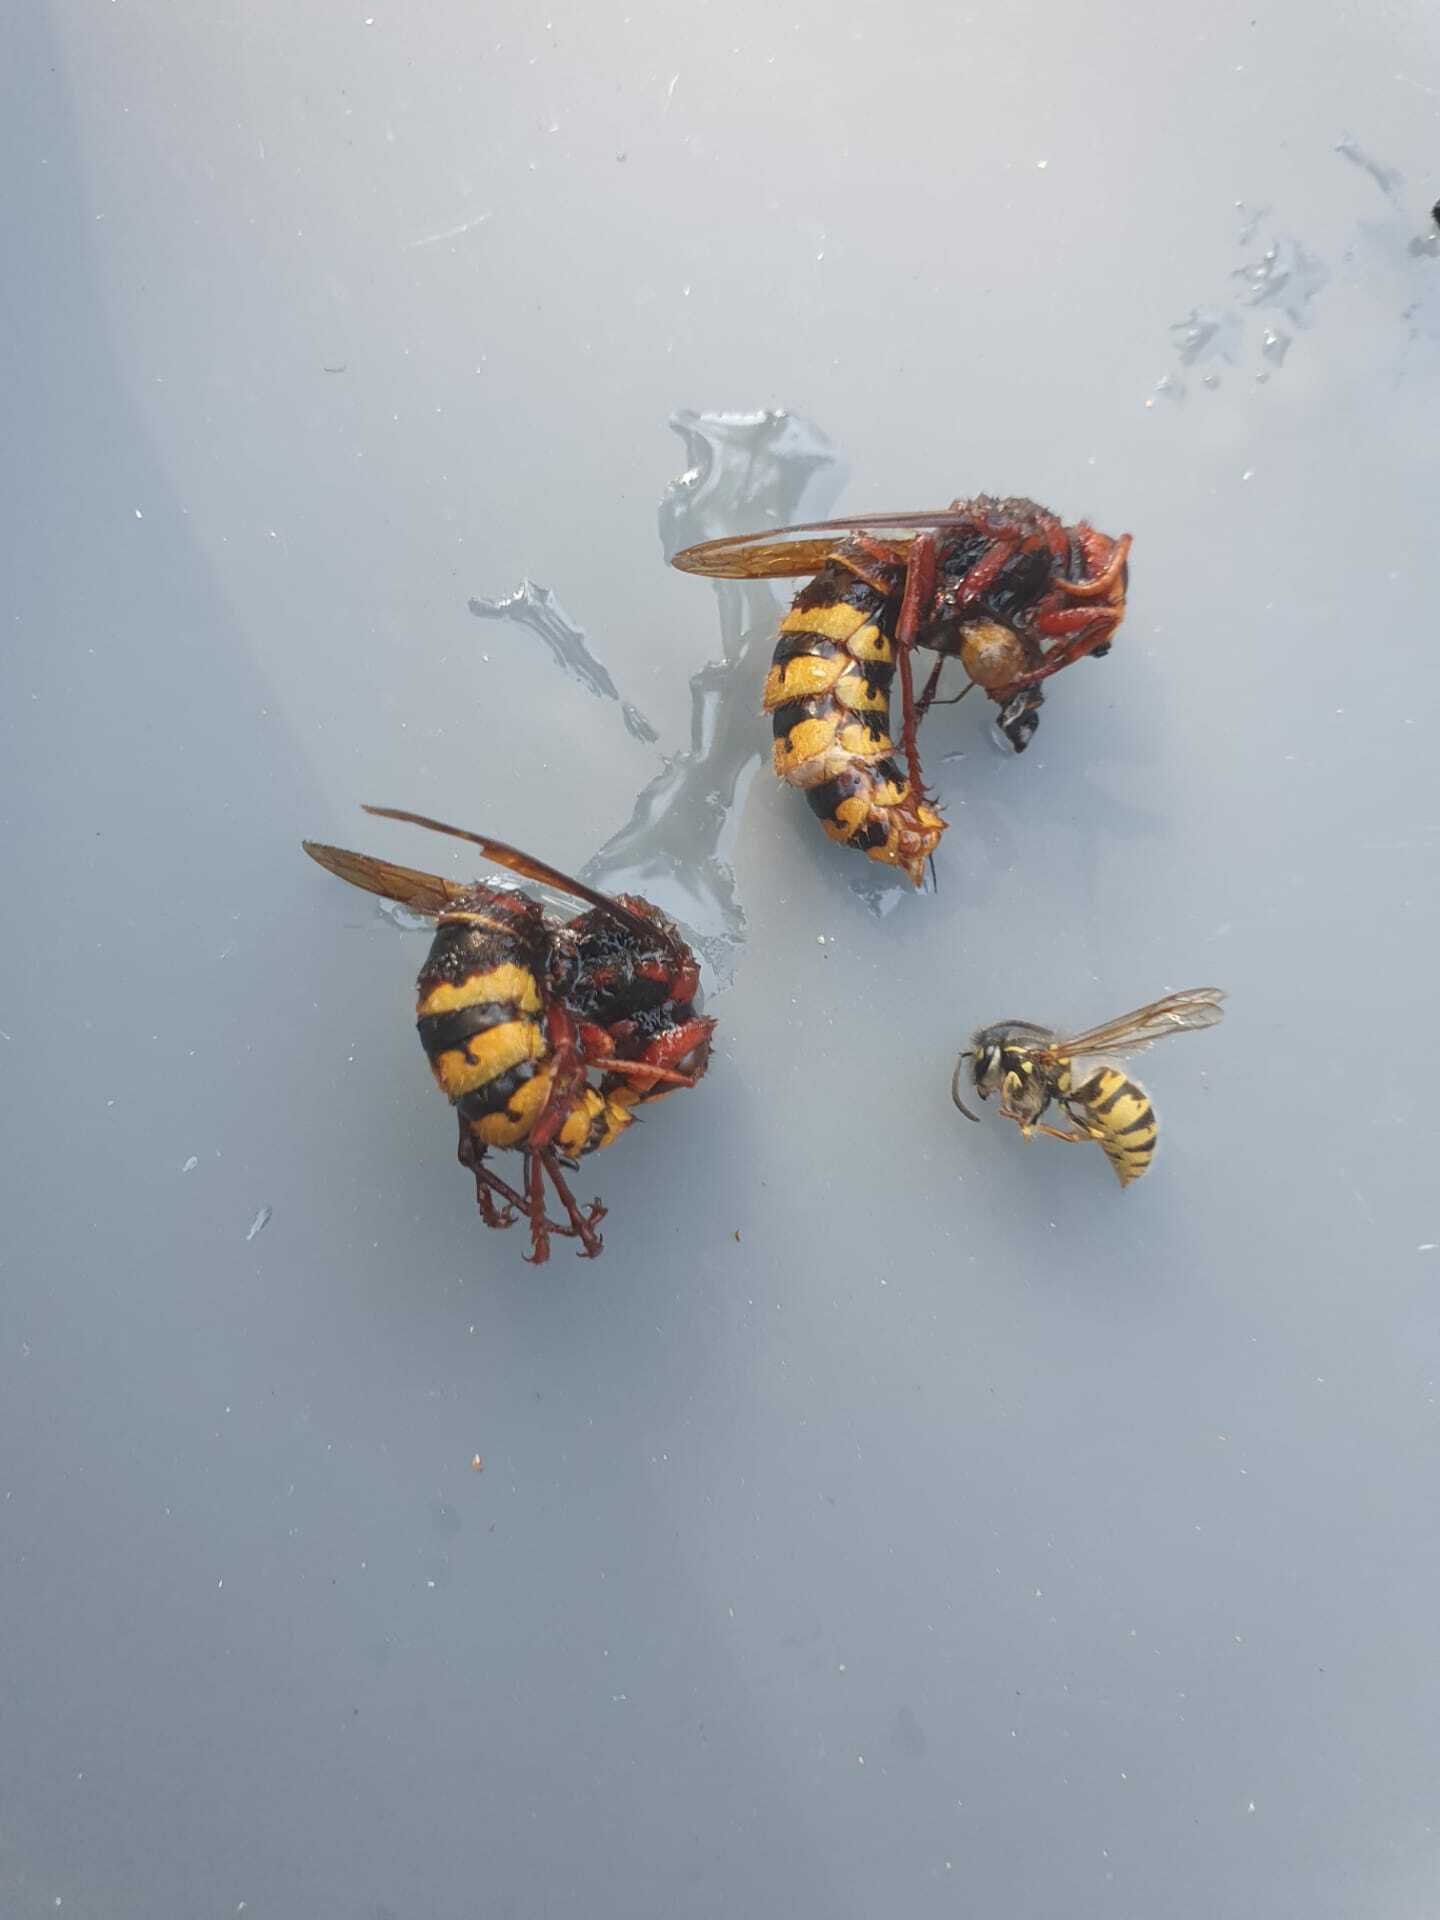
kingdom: Animalia
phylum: Arthropoda
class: Insecta
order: Hymenoptera
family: Vespidae
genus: Vespa
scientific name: Vespa crabro
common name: Hornet
